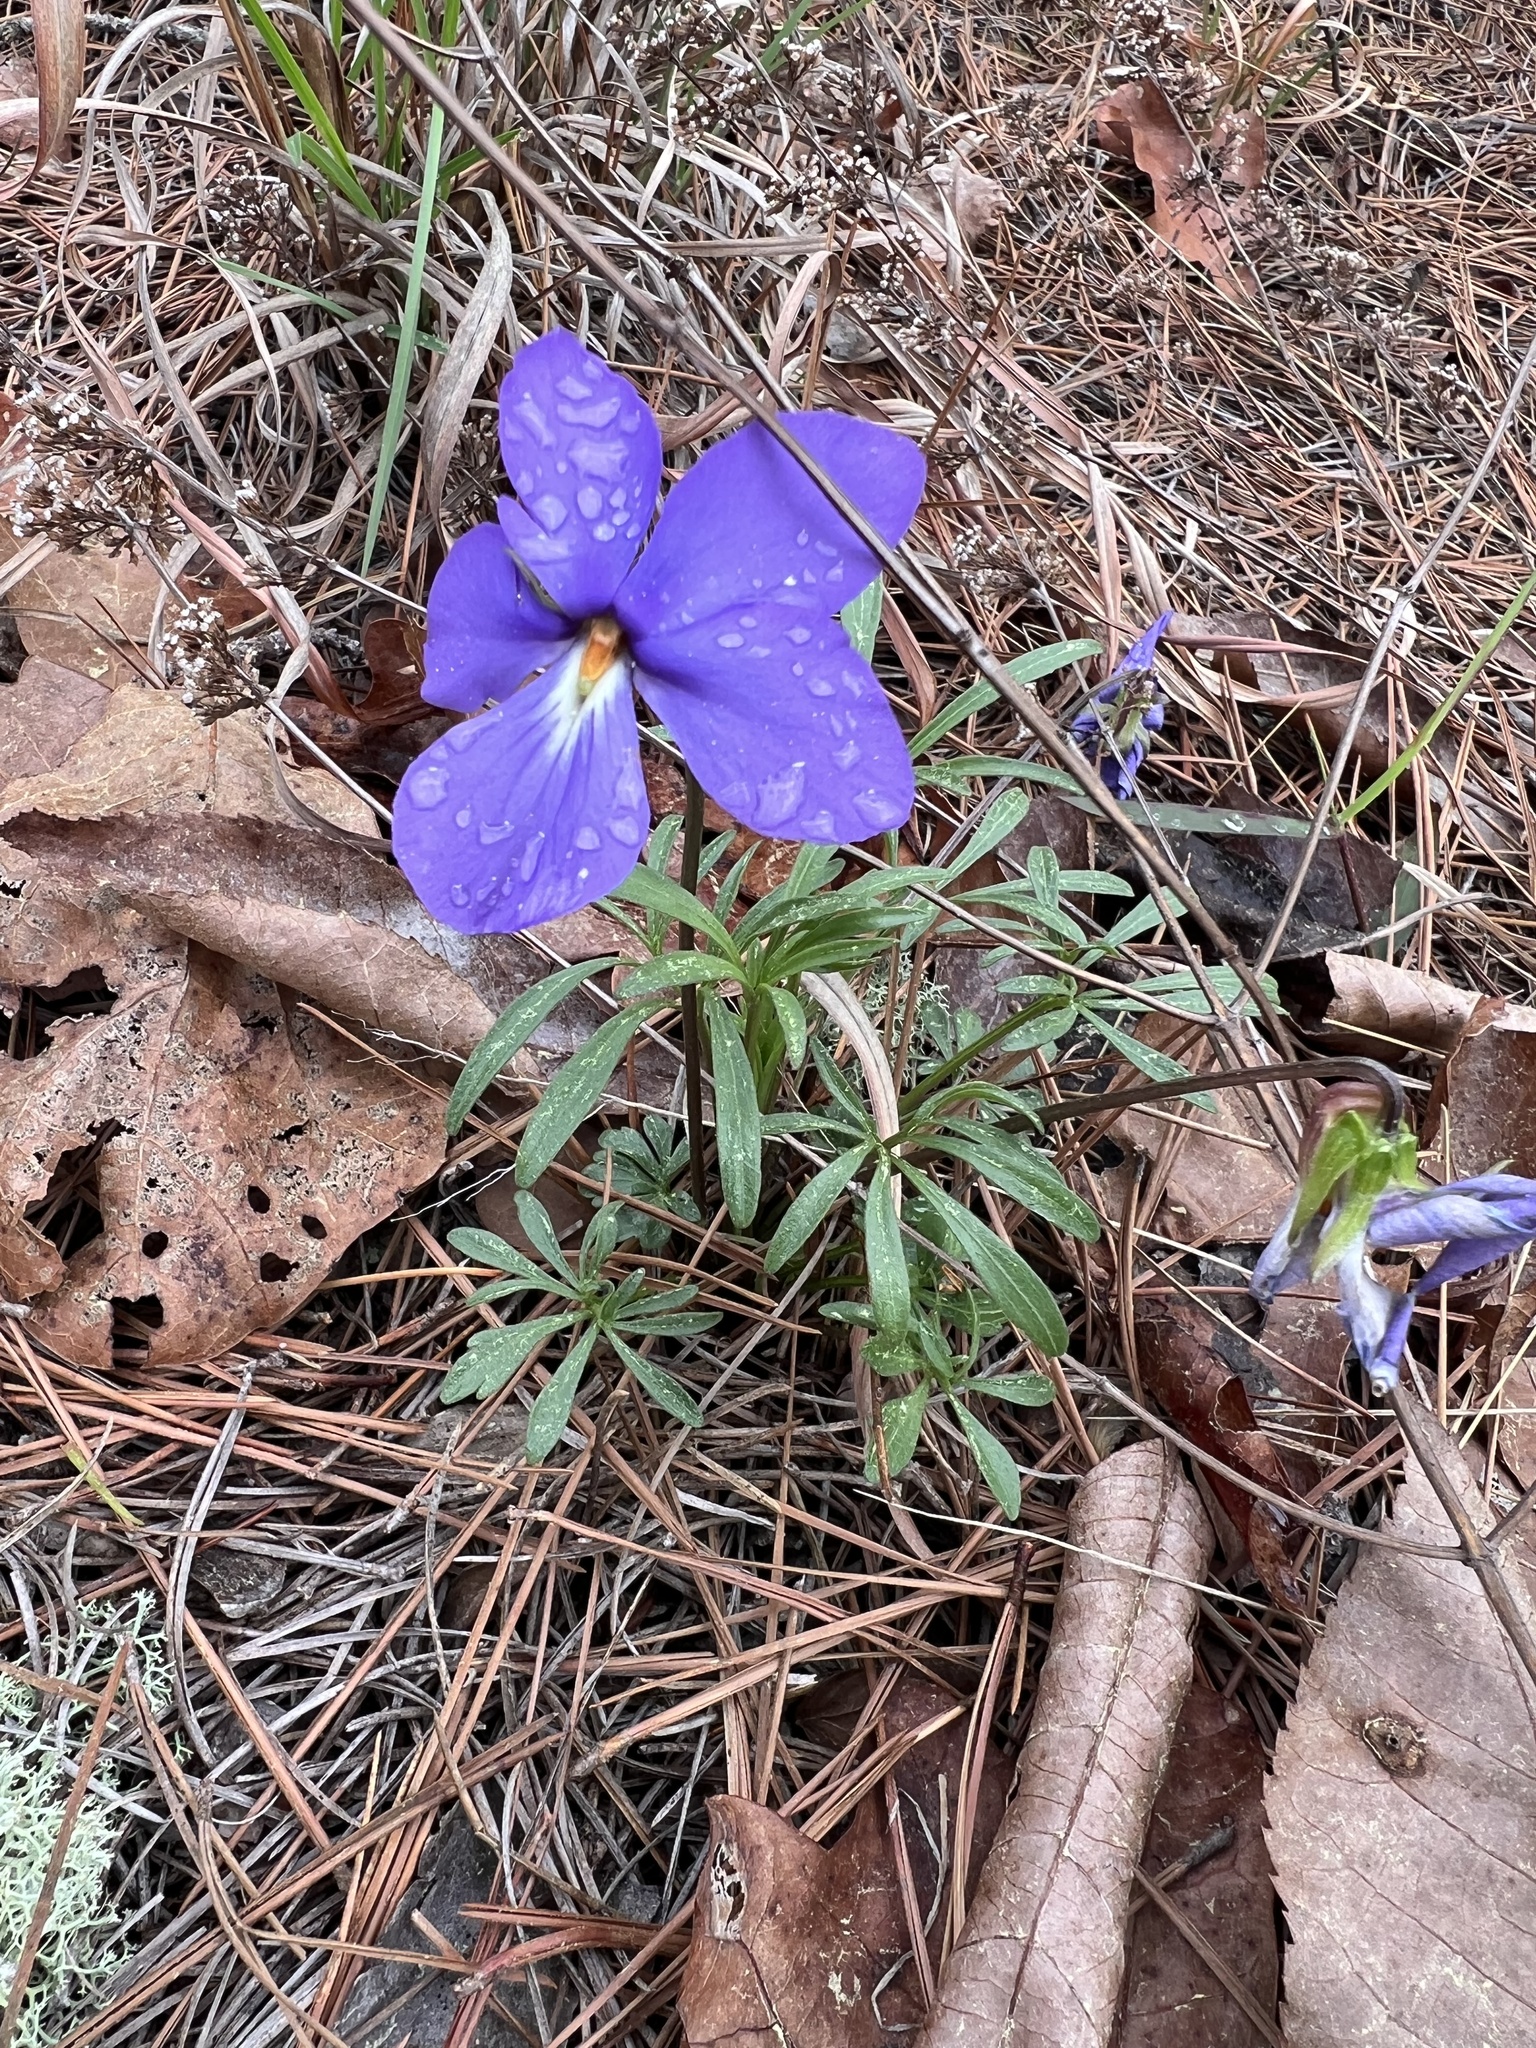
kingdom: Plantae
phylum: Tracheophyta
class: Magnoliopsida
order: Malpighiales
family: Violaceae
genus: Viola
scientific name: Viola pedata
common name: Pansy violet
